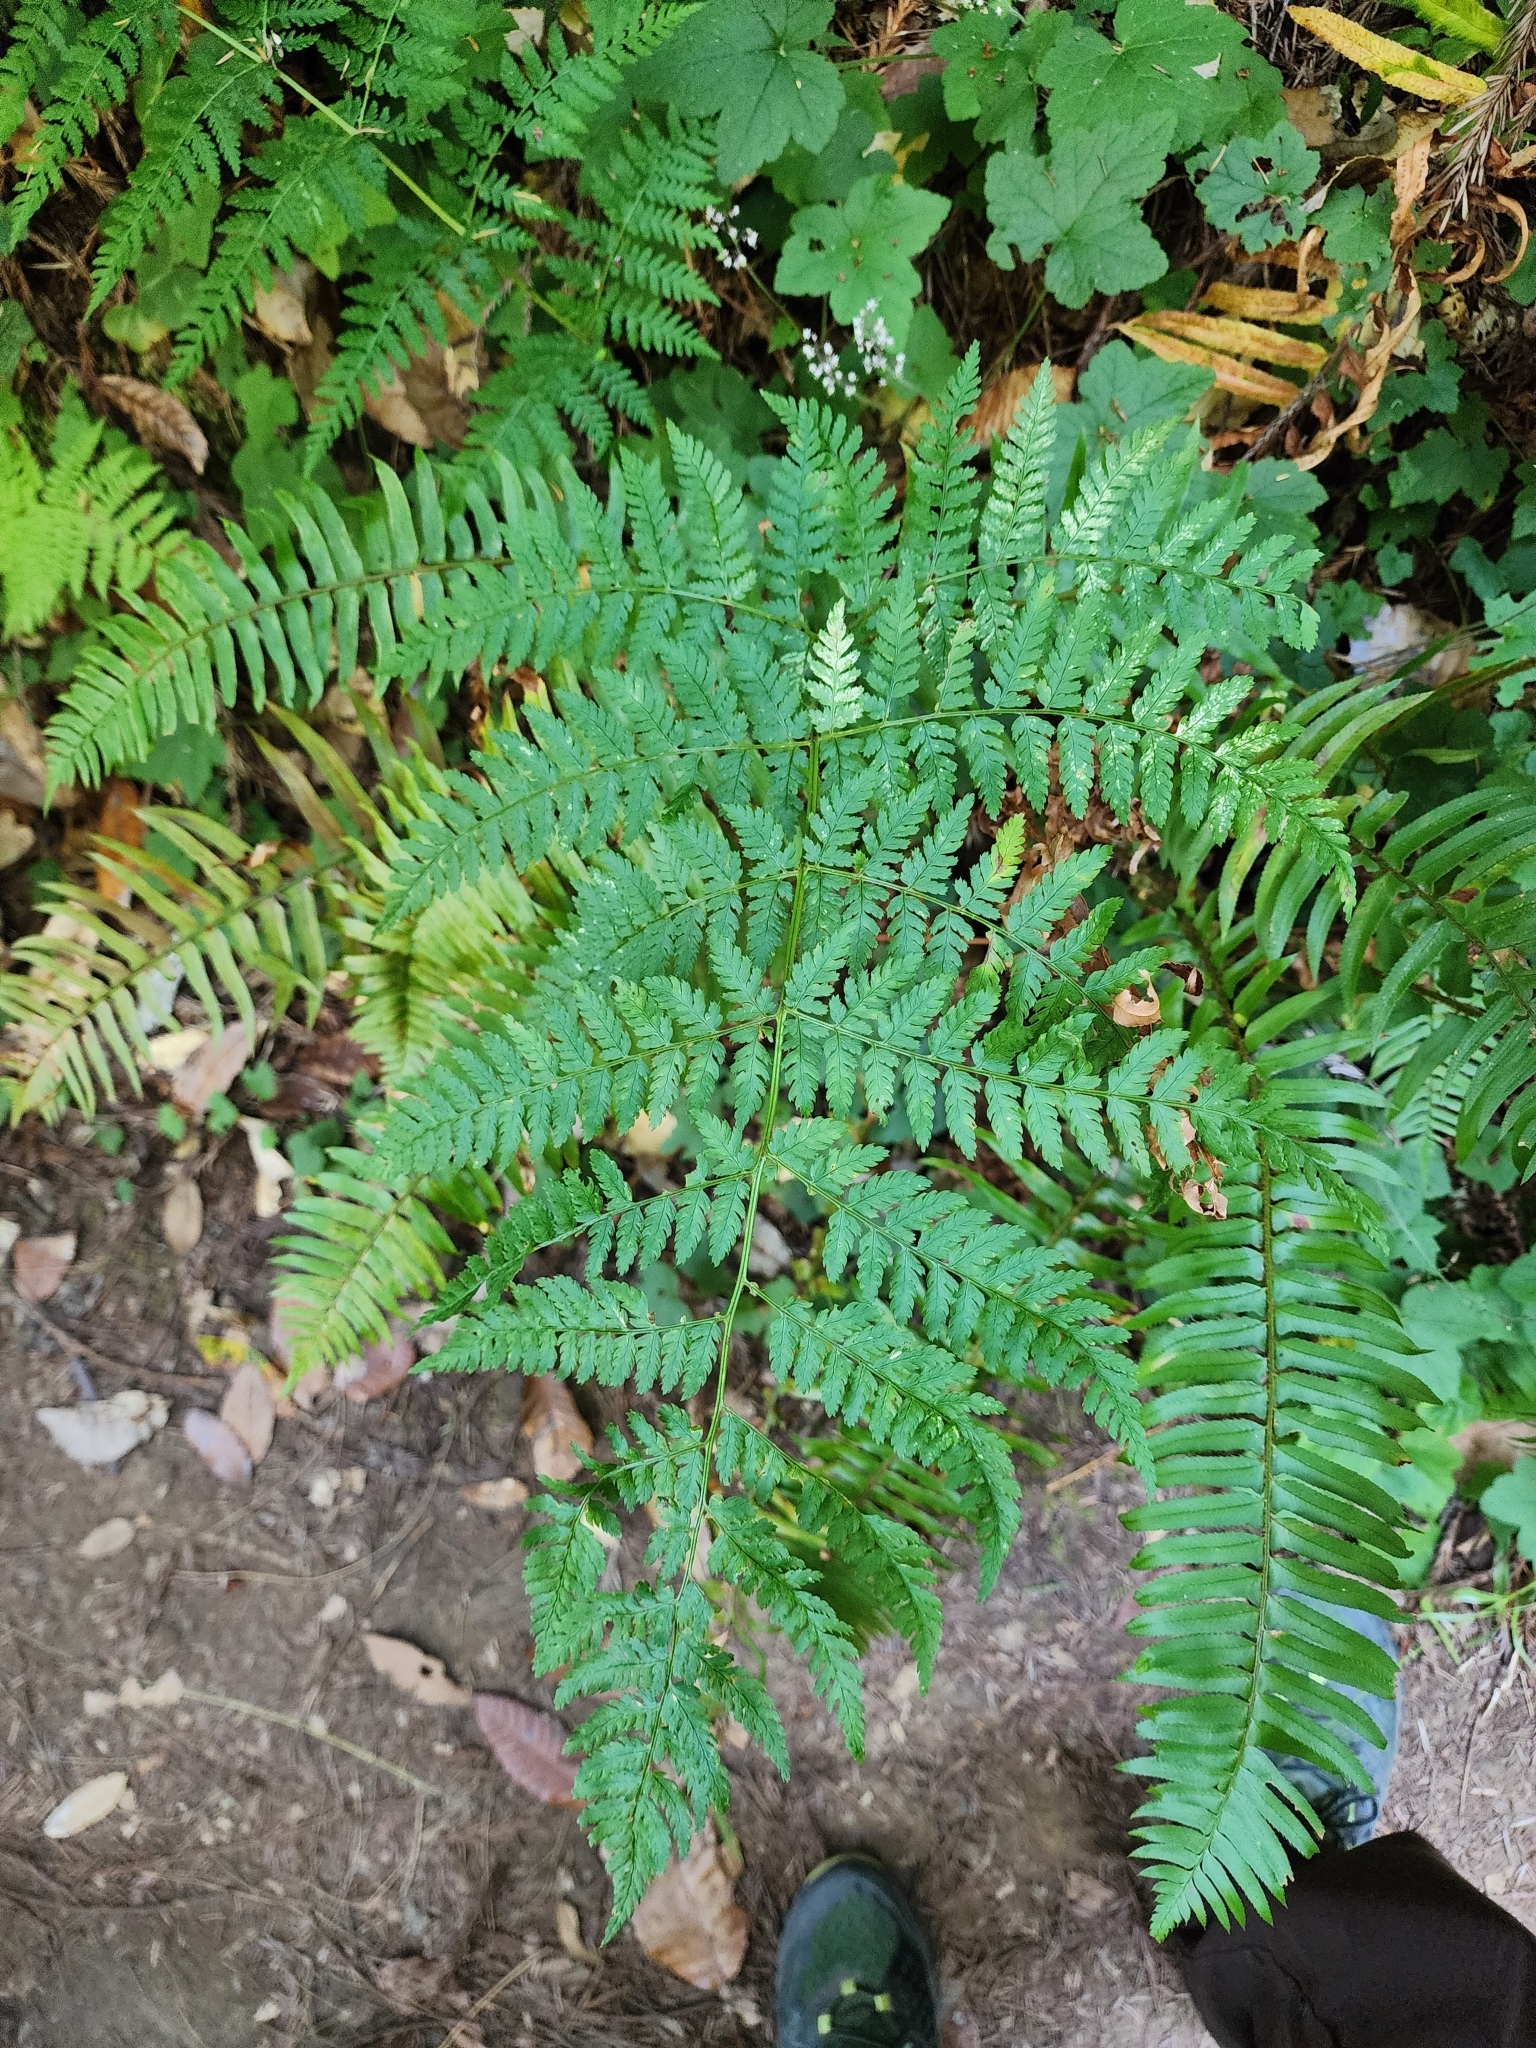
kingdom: Plantae
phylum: Tracheophyta
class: Polypodiopsida
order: Polypodiales
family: Dryopteridaceae
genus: Dryopteris
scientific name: Dryopteris expansa
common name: Northern buckler fern
